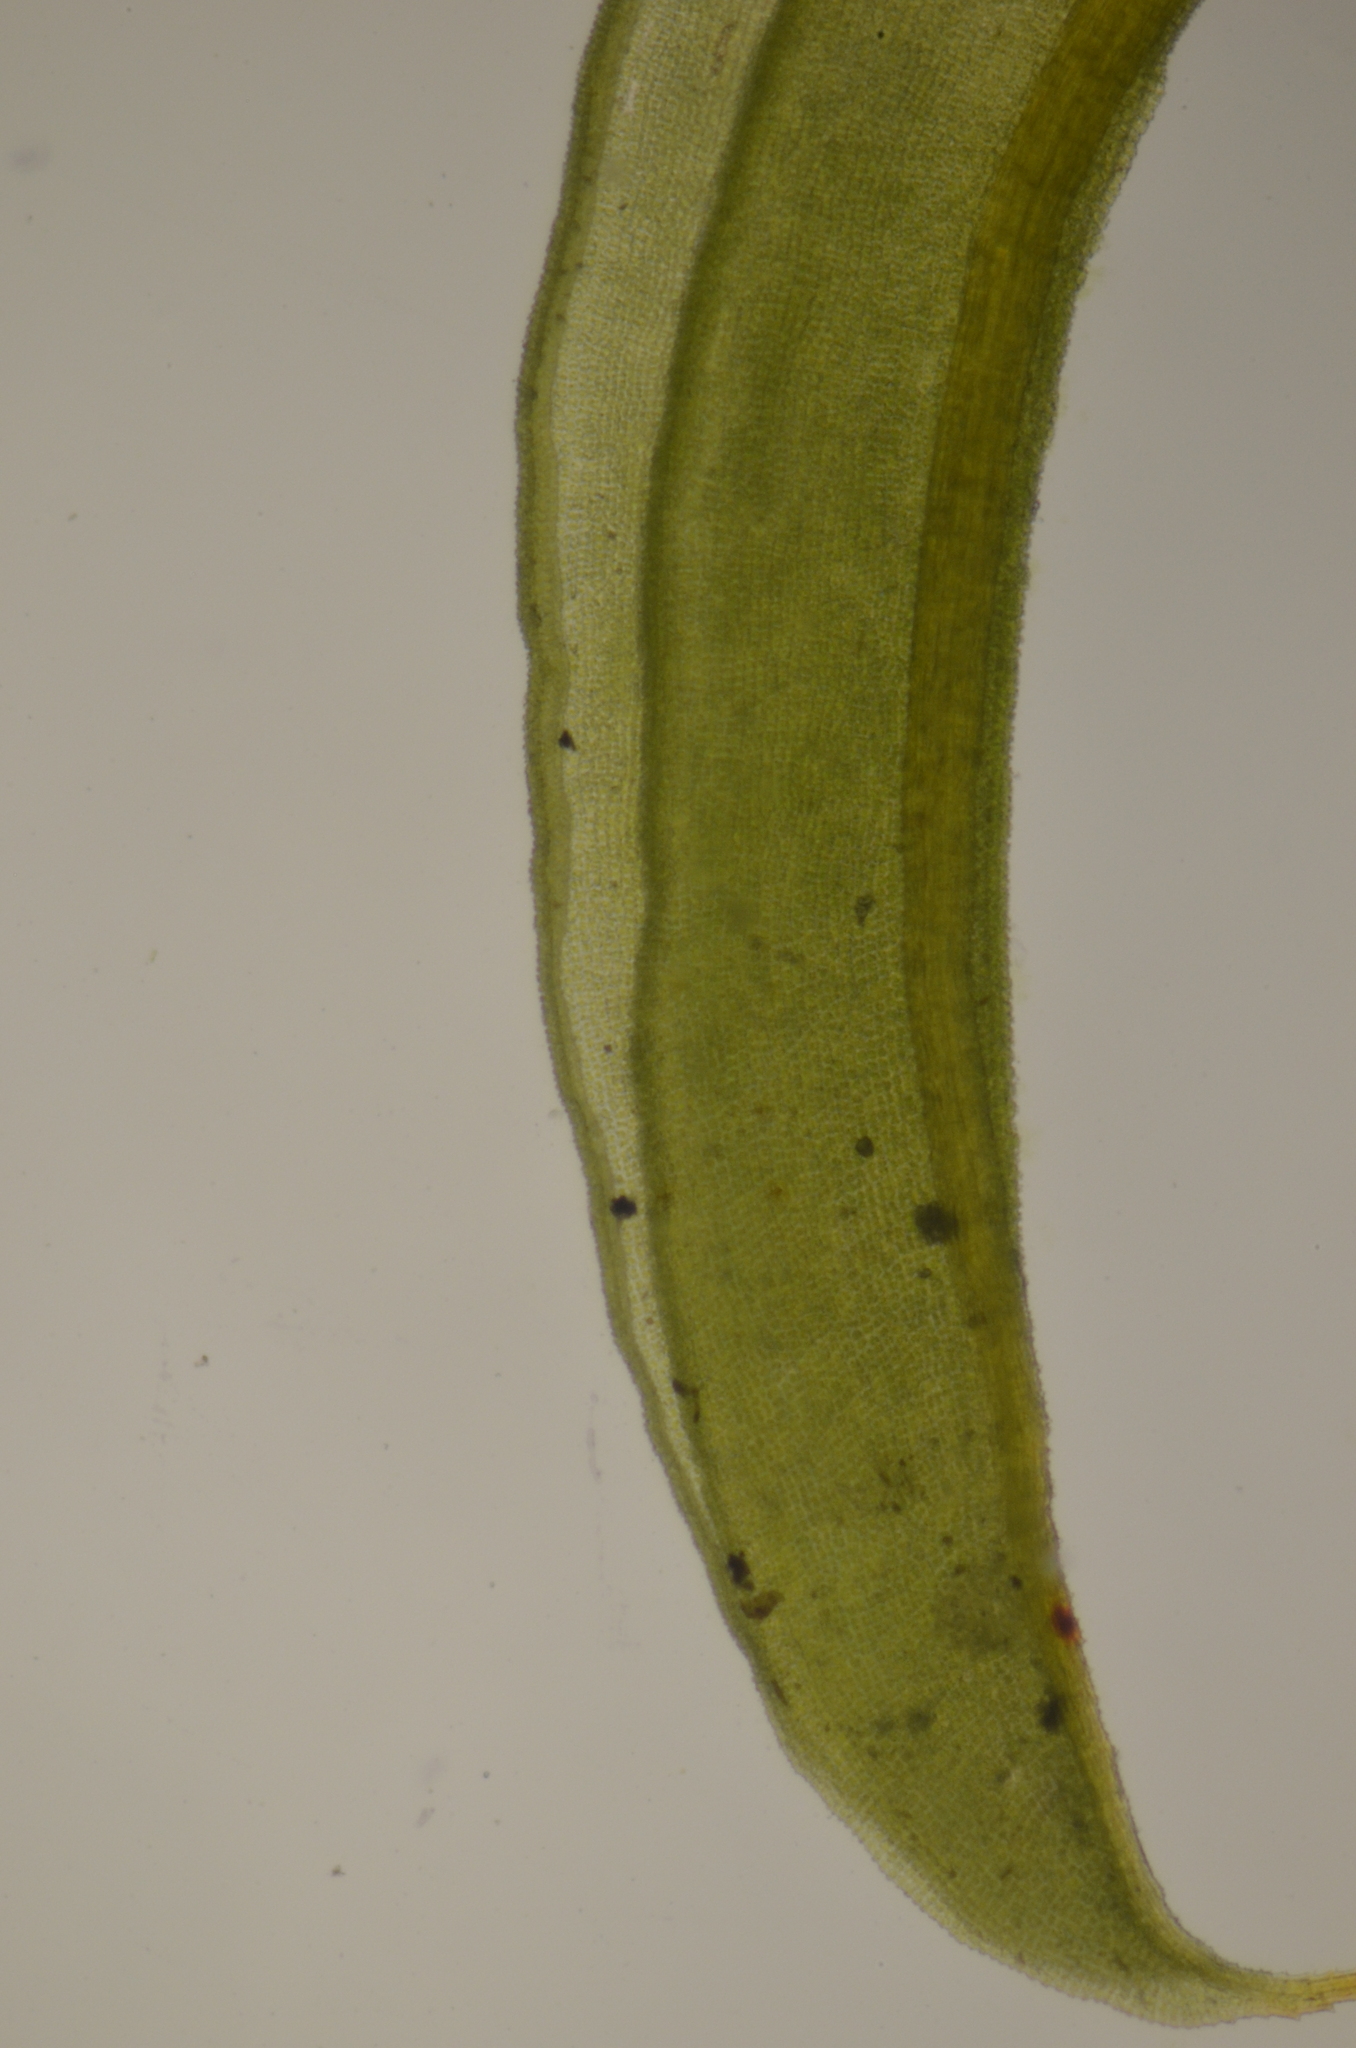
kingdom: Plantae
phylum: Bryophyta
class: Bryopsida
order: Pottiales
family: Pottiaceae
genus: Syntrichia
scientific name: Syntrichia subpapillosissima
